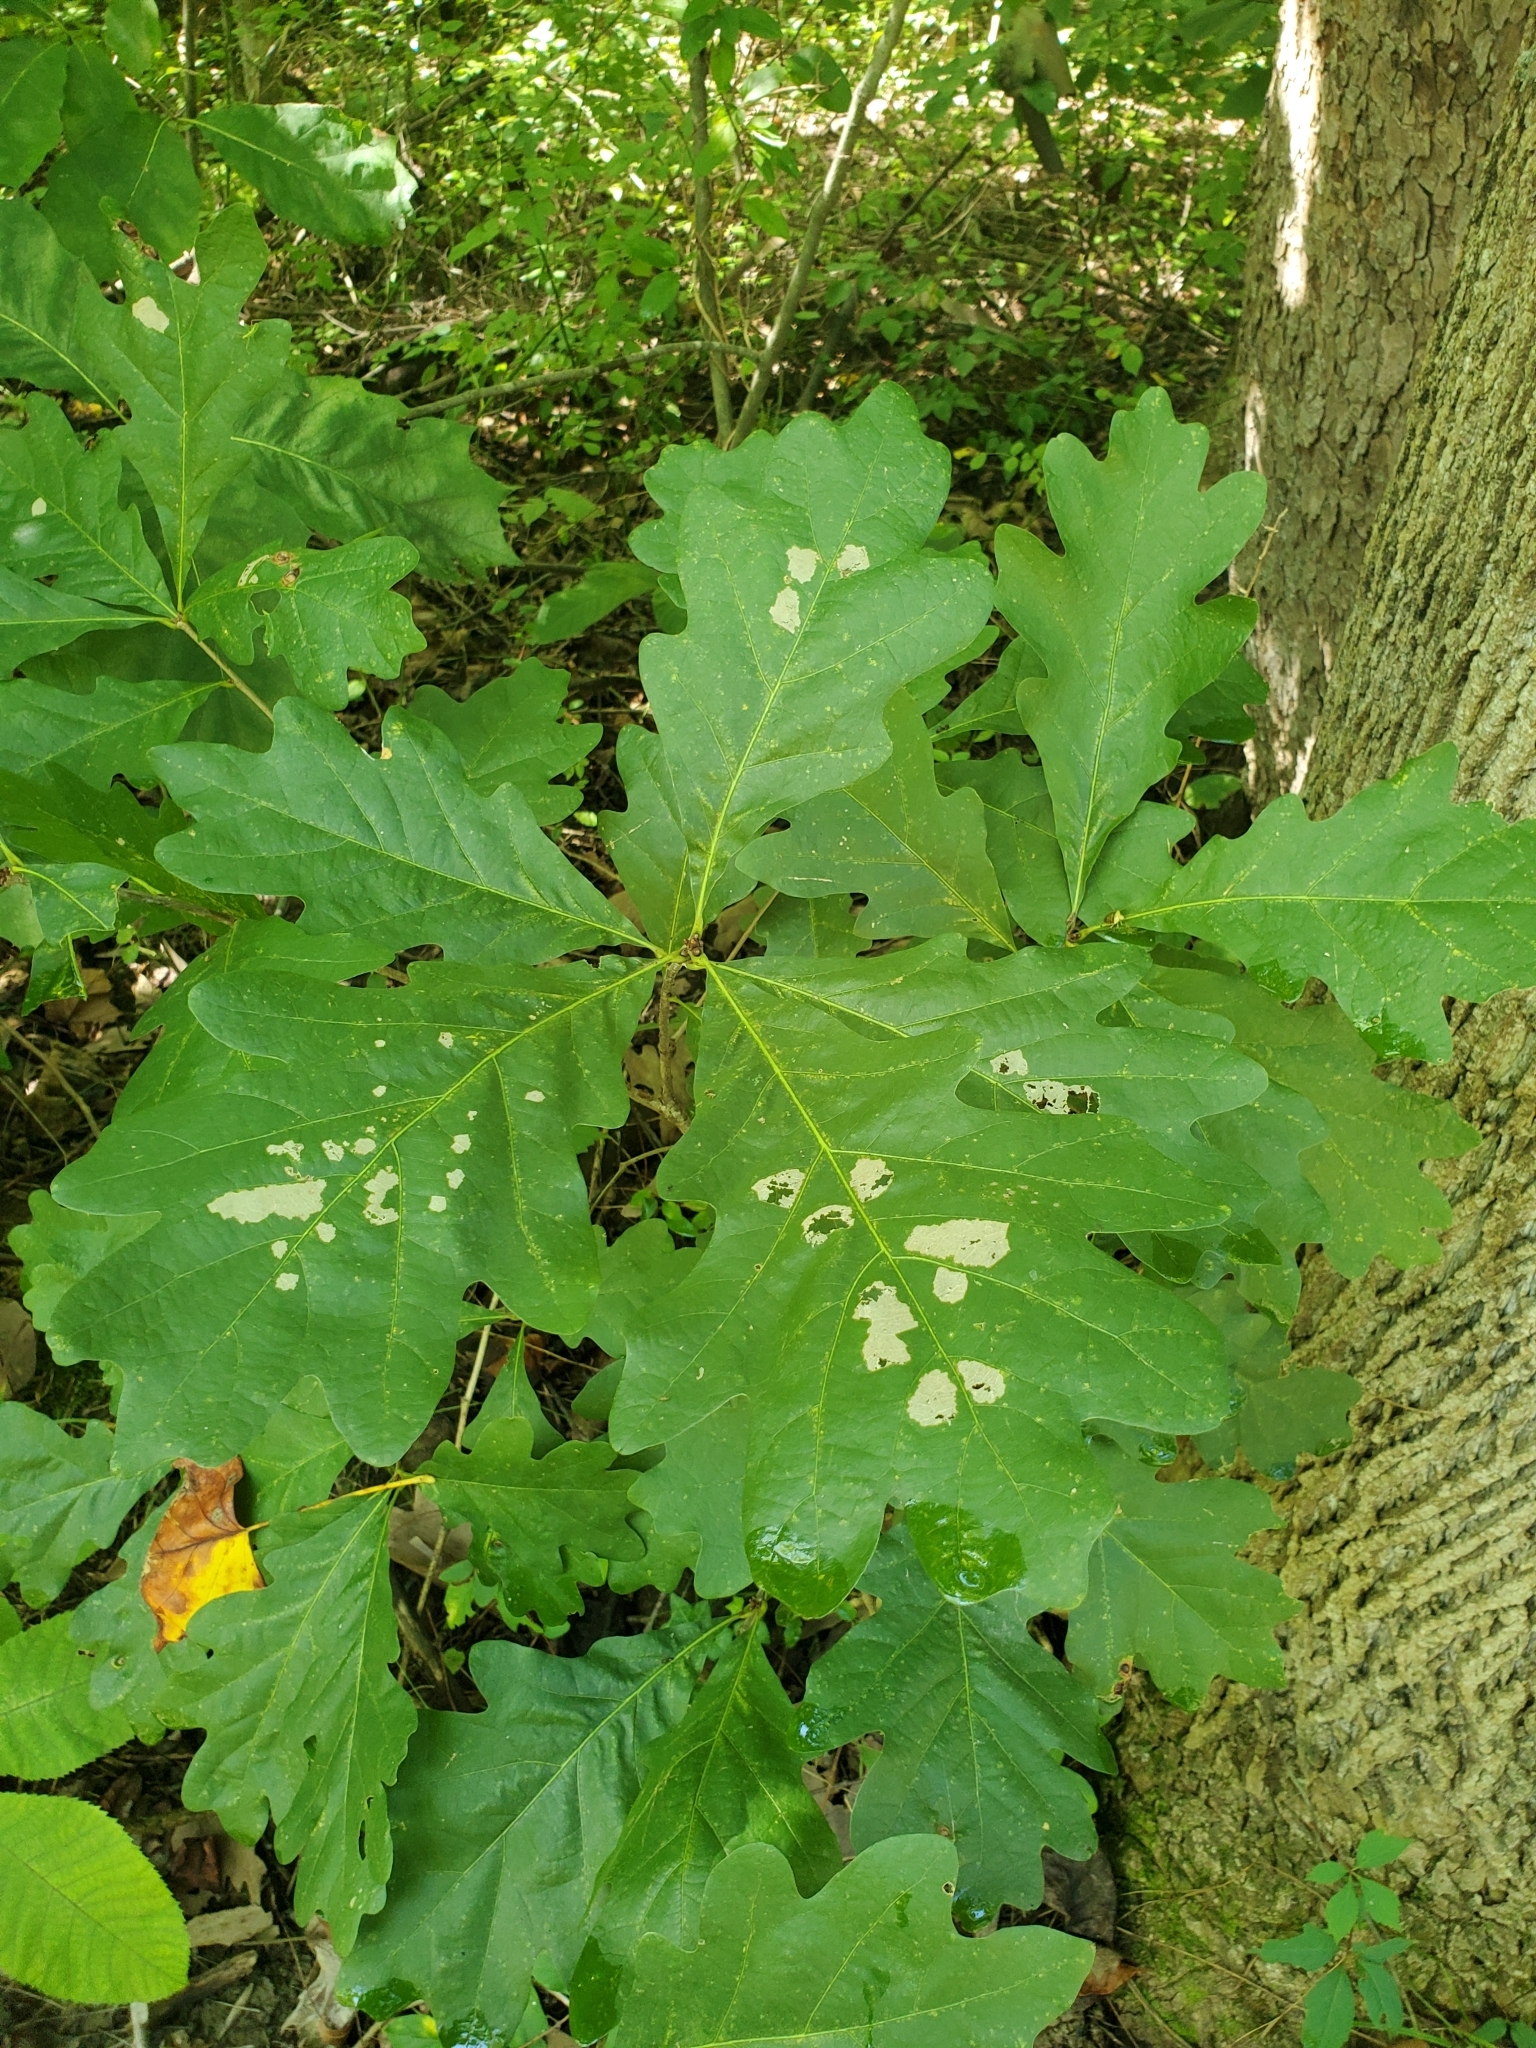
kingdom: Plantae
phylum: Tracheophyta
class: Magnoliopsida
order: Fagales
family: Fagaceae
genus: Quercus
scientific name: Quercus alba
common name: White oak
